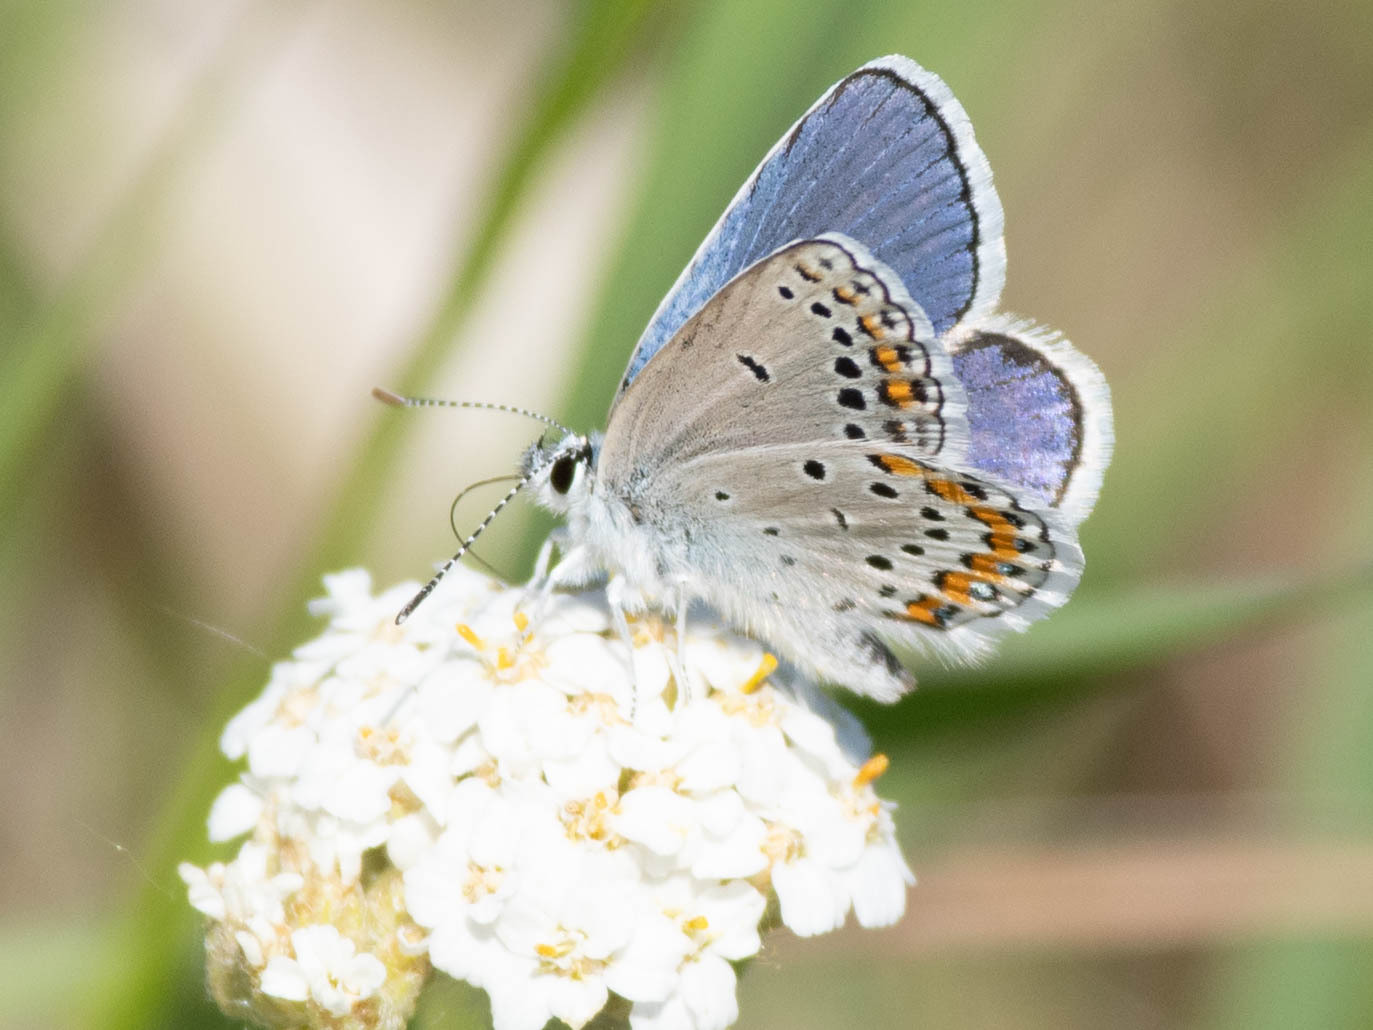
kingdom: Animalia
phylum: Arthropoda
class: Insecta
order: Lepidoptera
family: Lycaenidae
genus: Lycaeides
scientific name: Lycaeides melissa
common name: Melissa blue
